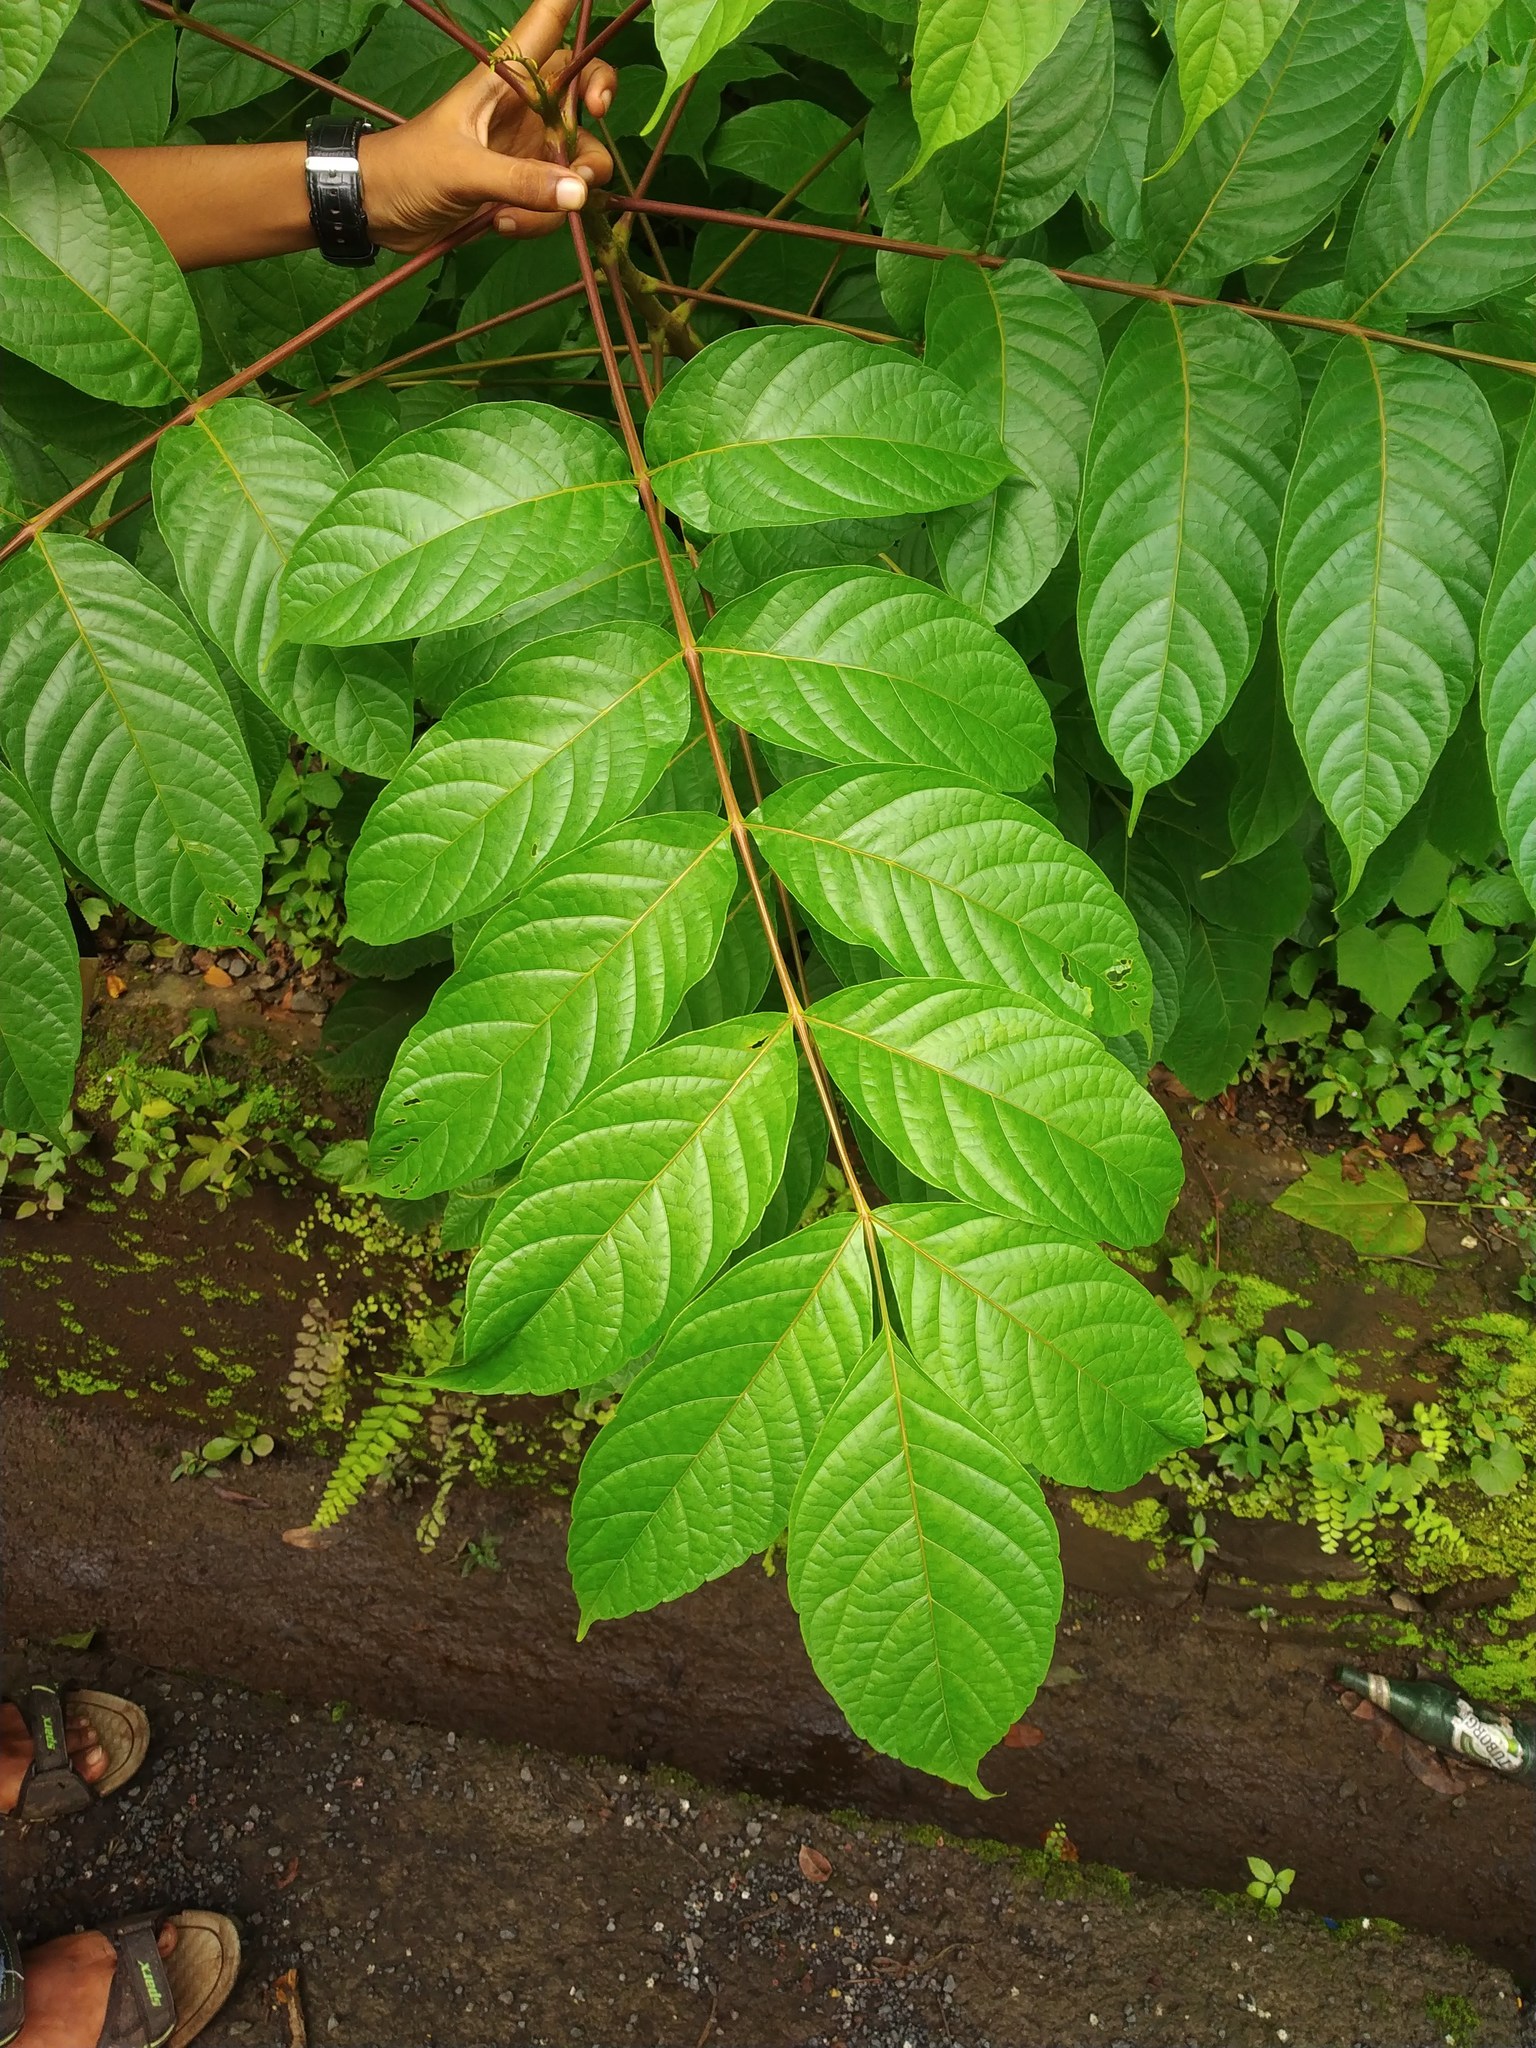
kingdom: Plantae
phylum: Tracheophyta
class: Magnoliopsida
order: Sapindales
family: Anacardiaceae
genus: Lannea
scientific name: Lannea coromandelica
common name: Indian ash tree
